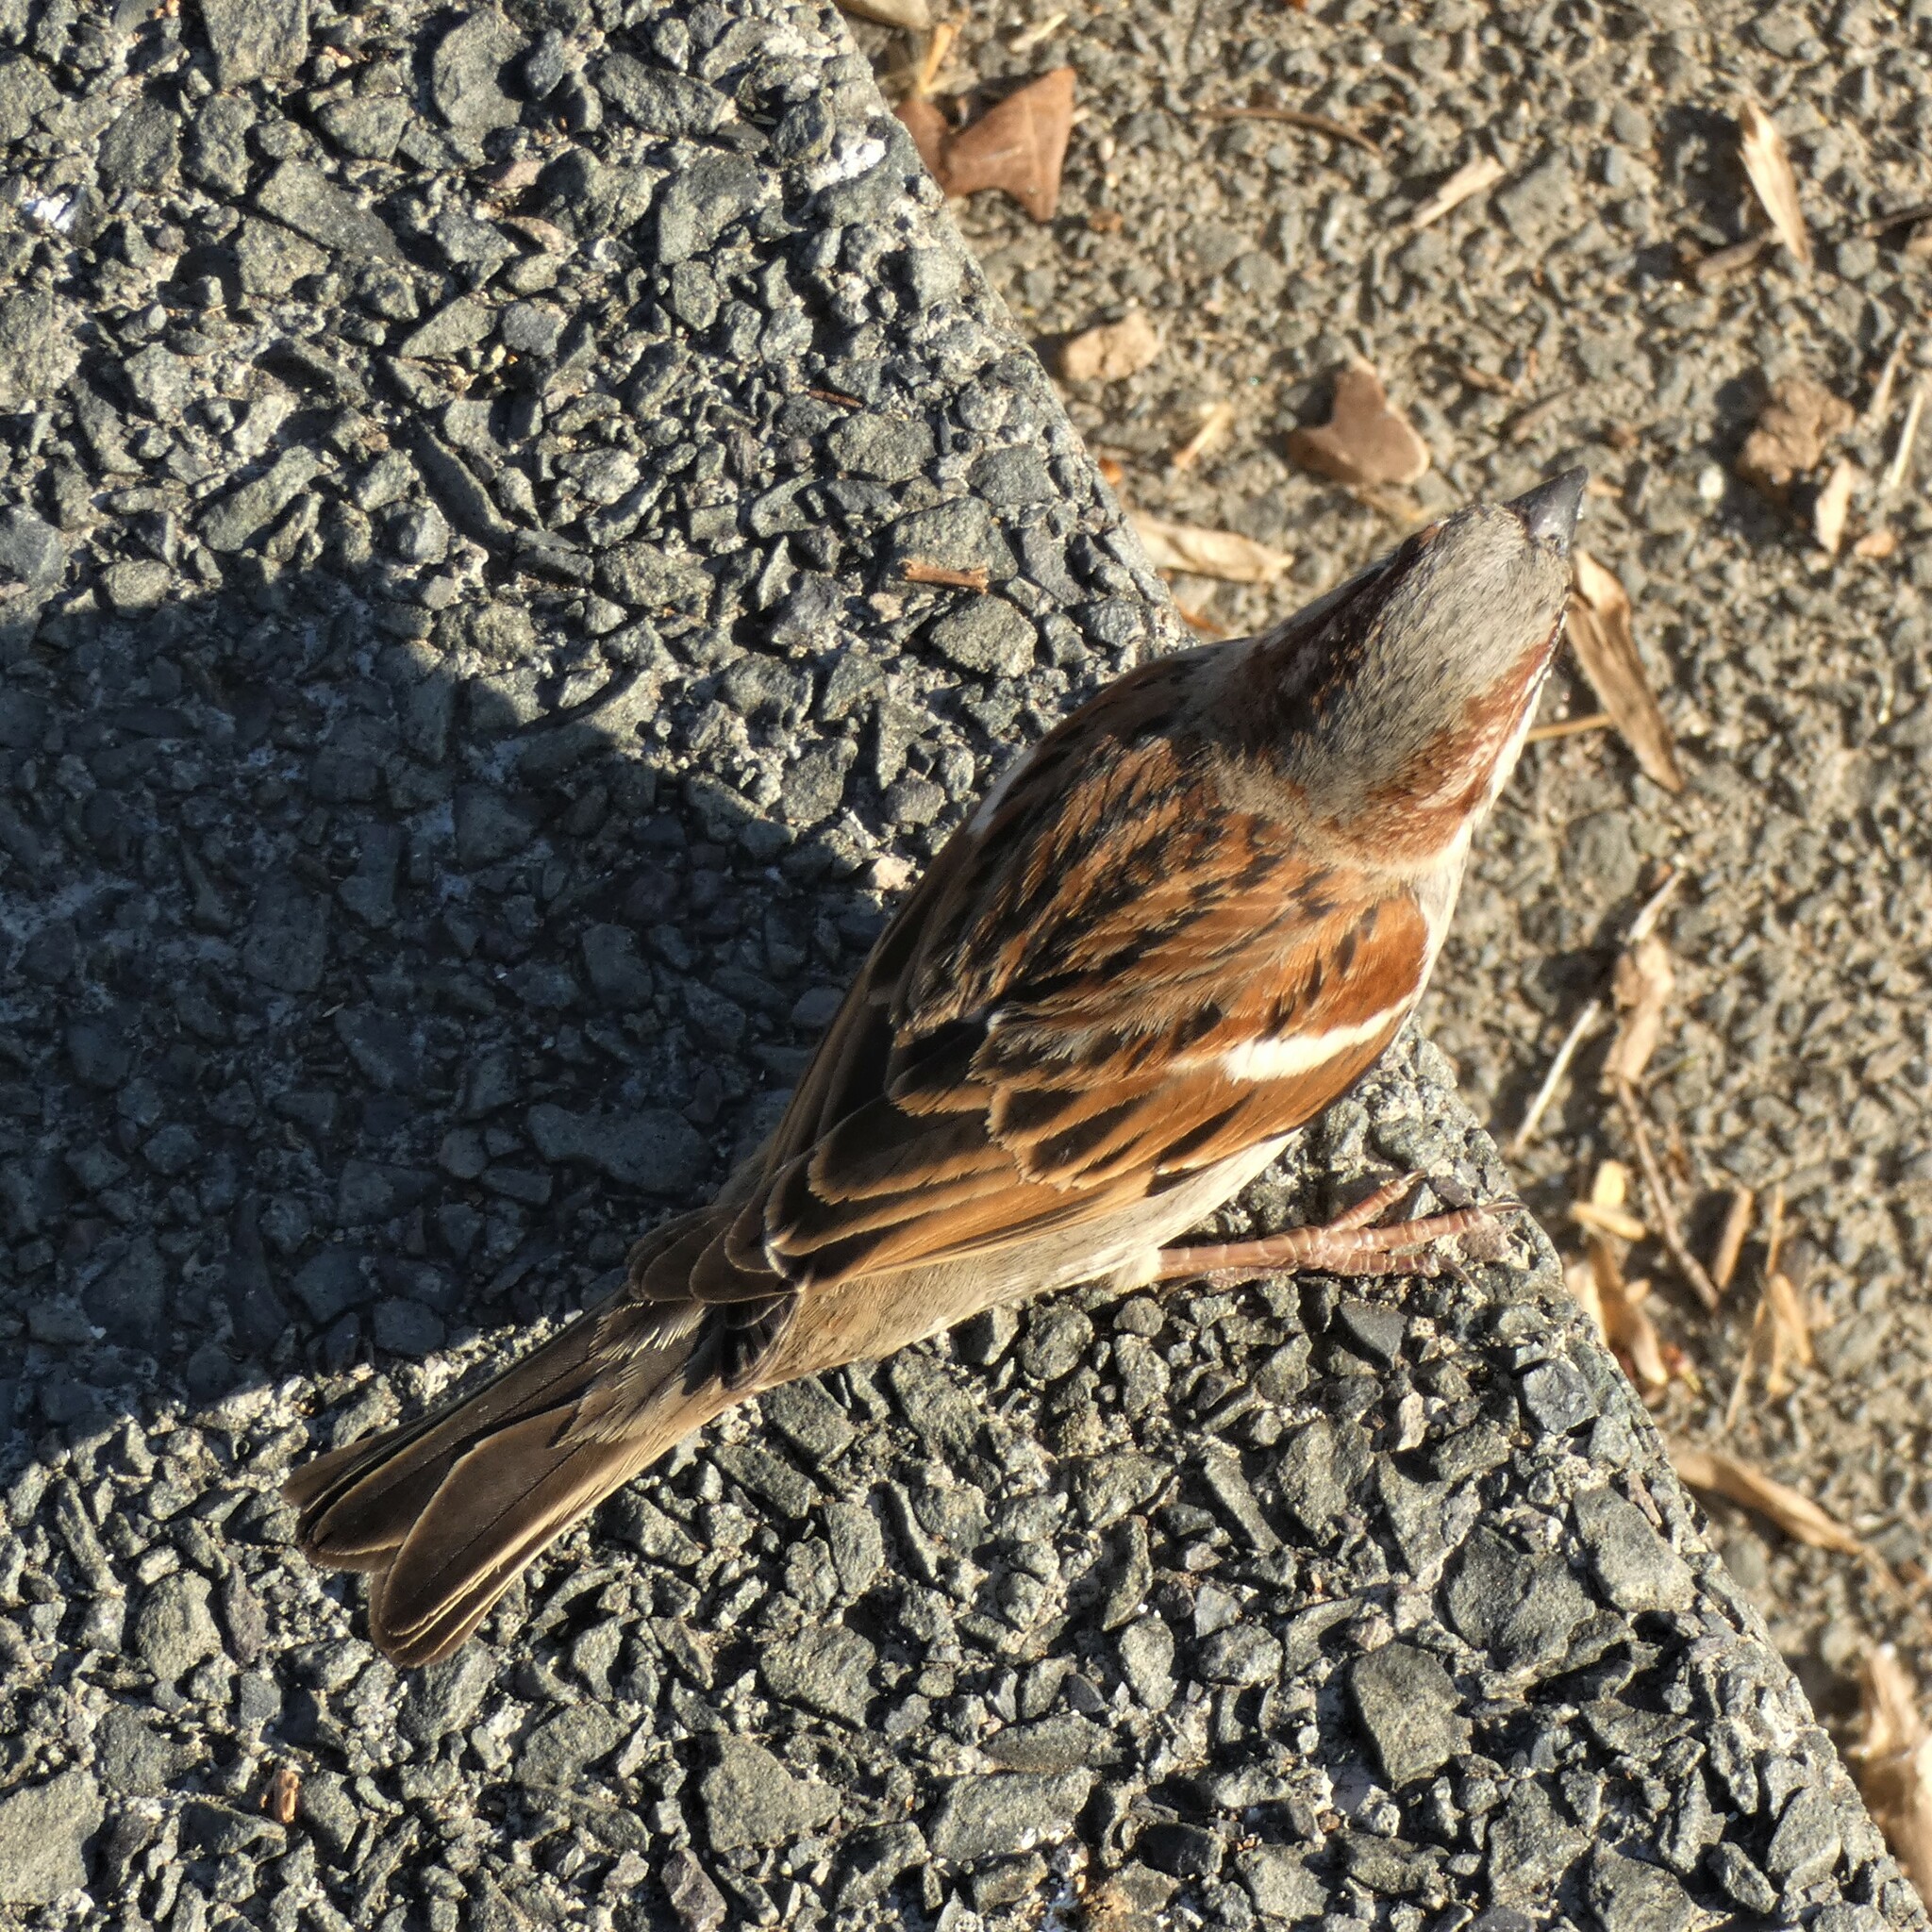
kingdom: Animalia
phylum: Chordata
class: Aves
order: Passeriformes
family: Passeridae
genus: Passer
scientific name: Passer domesticus
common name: House sparrow
